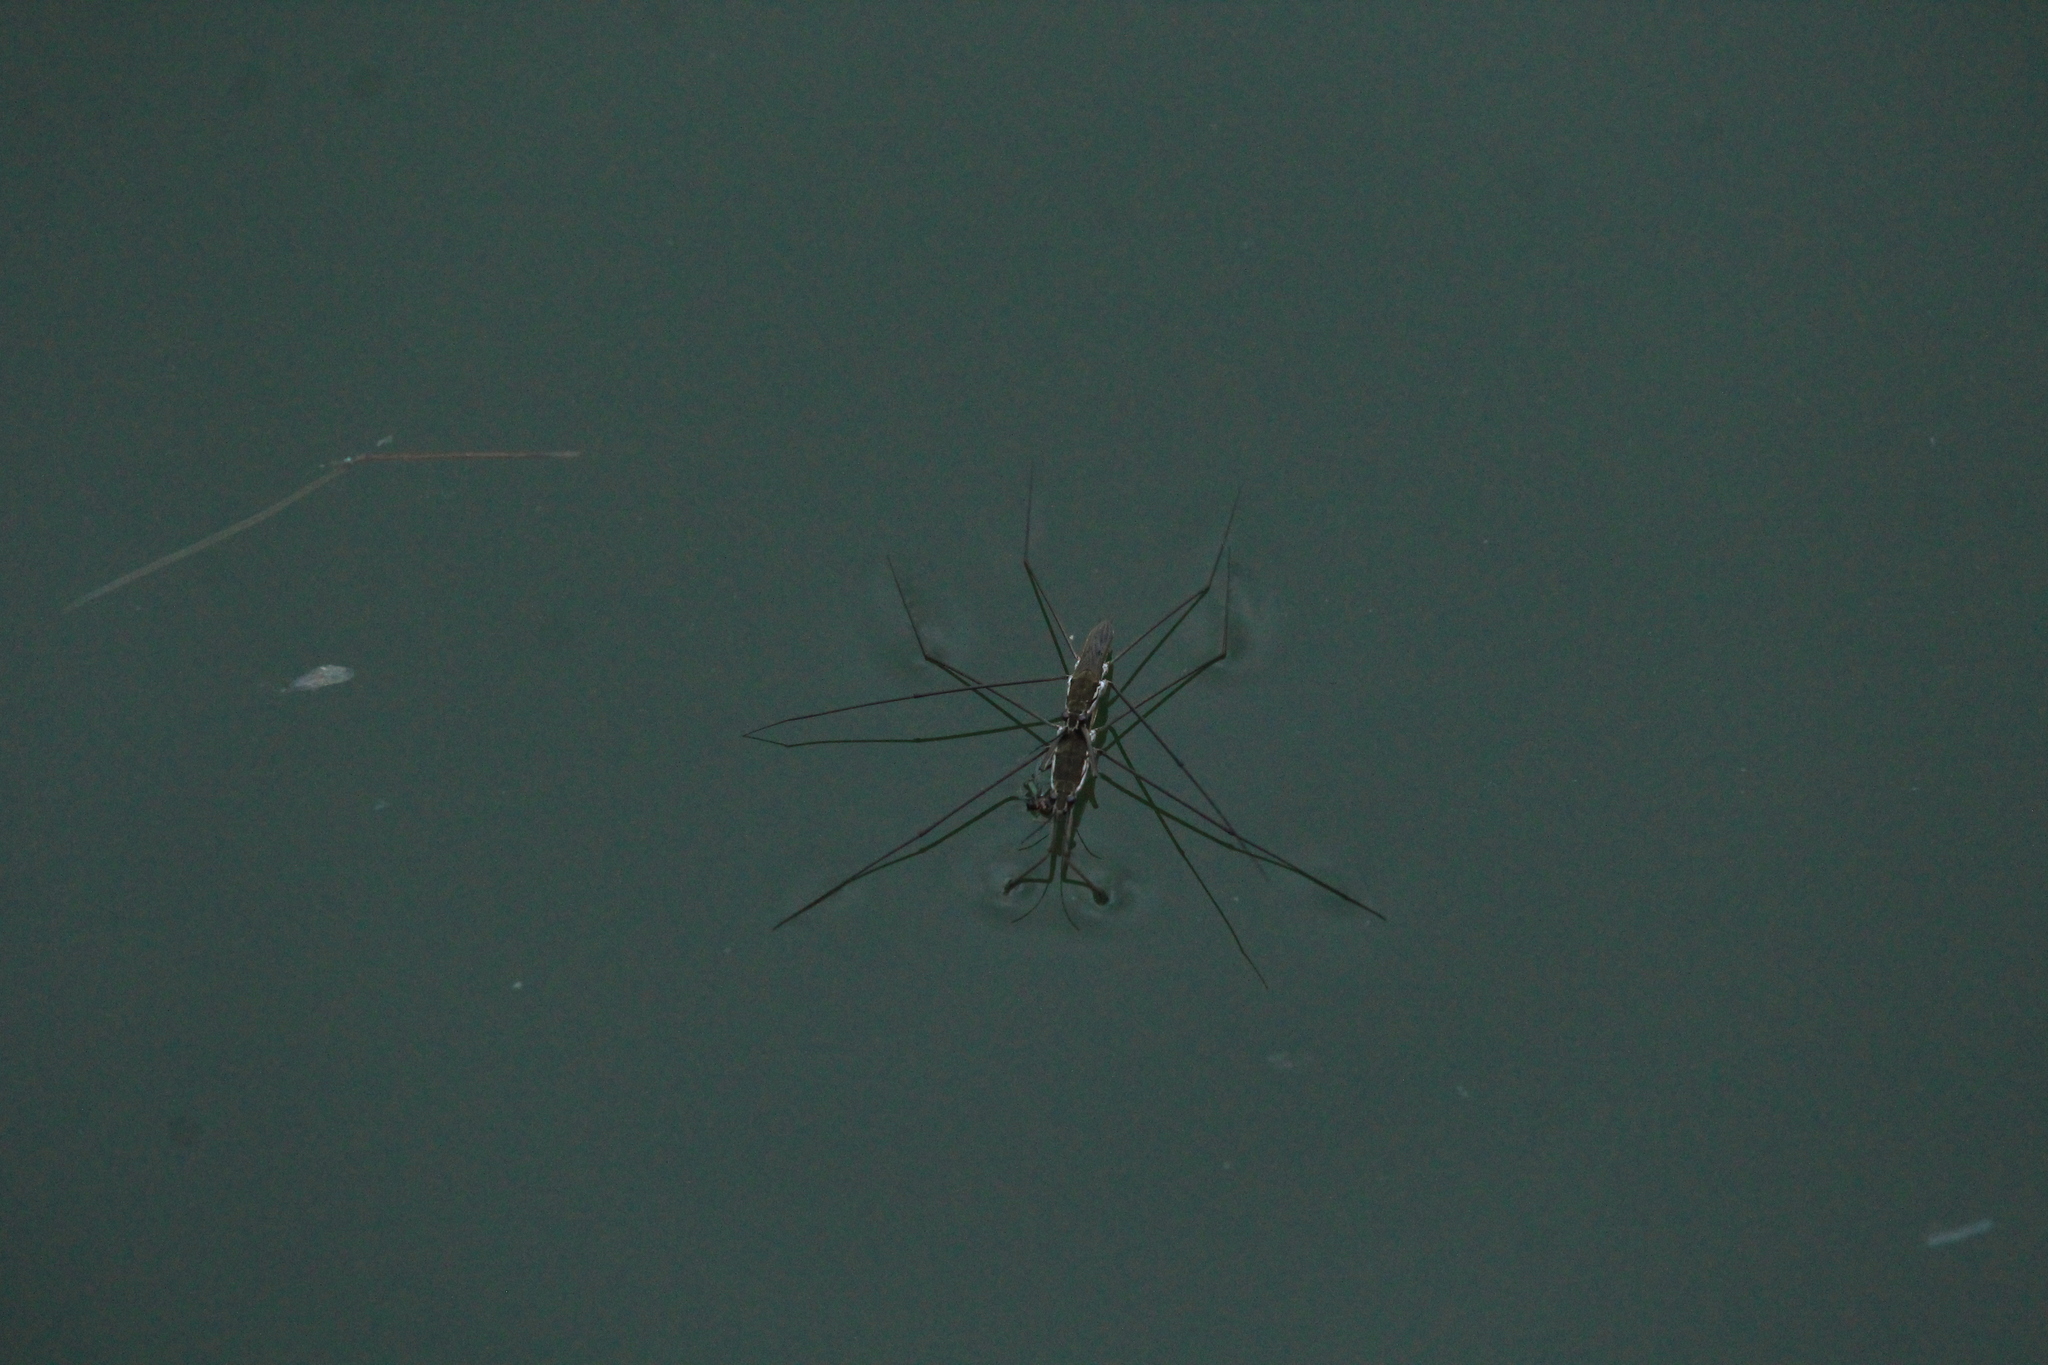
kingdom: Animalia
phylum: Arthropoda
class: Insecta
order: Hemiptera
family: Gerridae
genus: Aquarius
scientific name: Aquarius paludum
